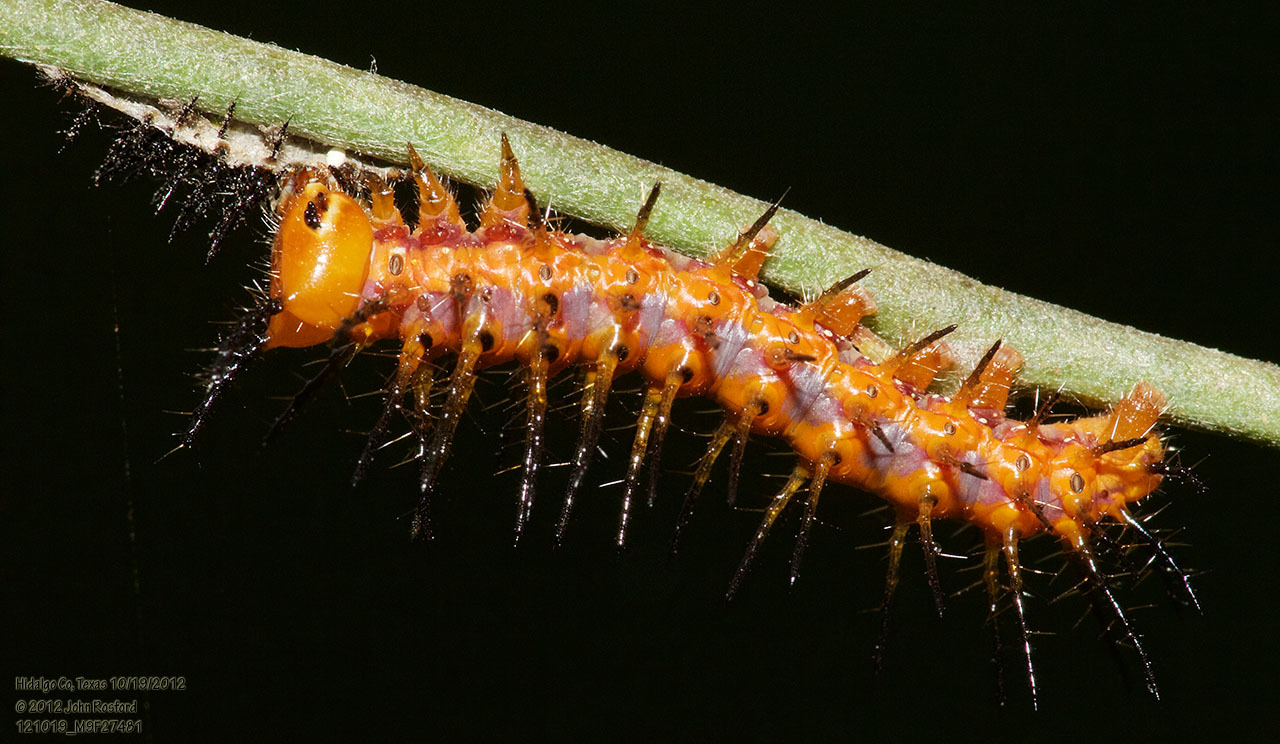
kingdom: Animalia
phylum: Arthropoda
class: Insecta
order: Lepidoptera
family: Nymphalidae
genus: Dione
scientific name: Dione vanillae
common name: Gulf fritillary
